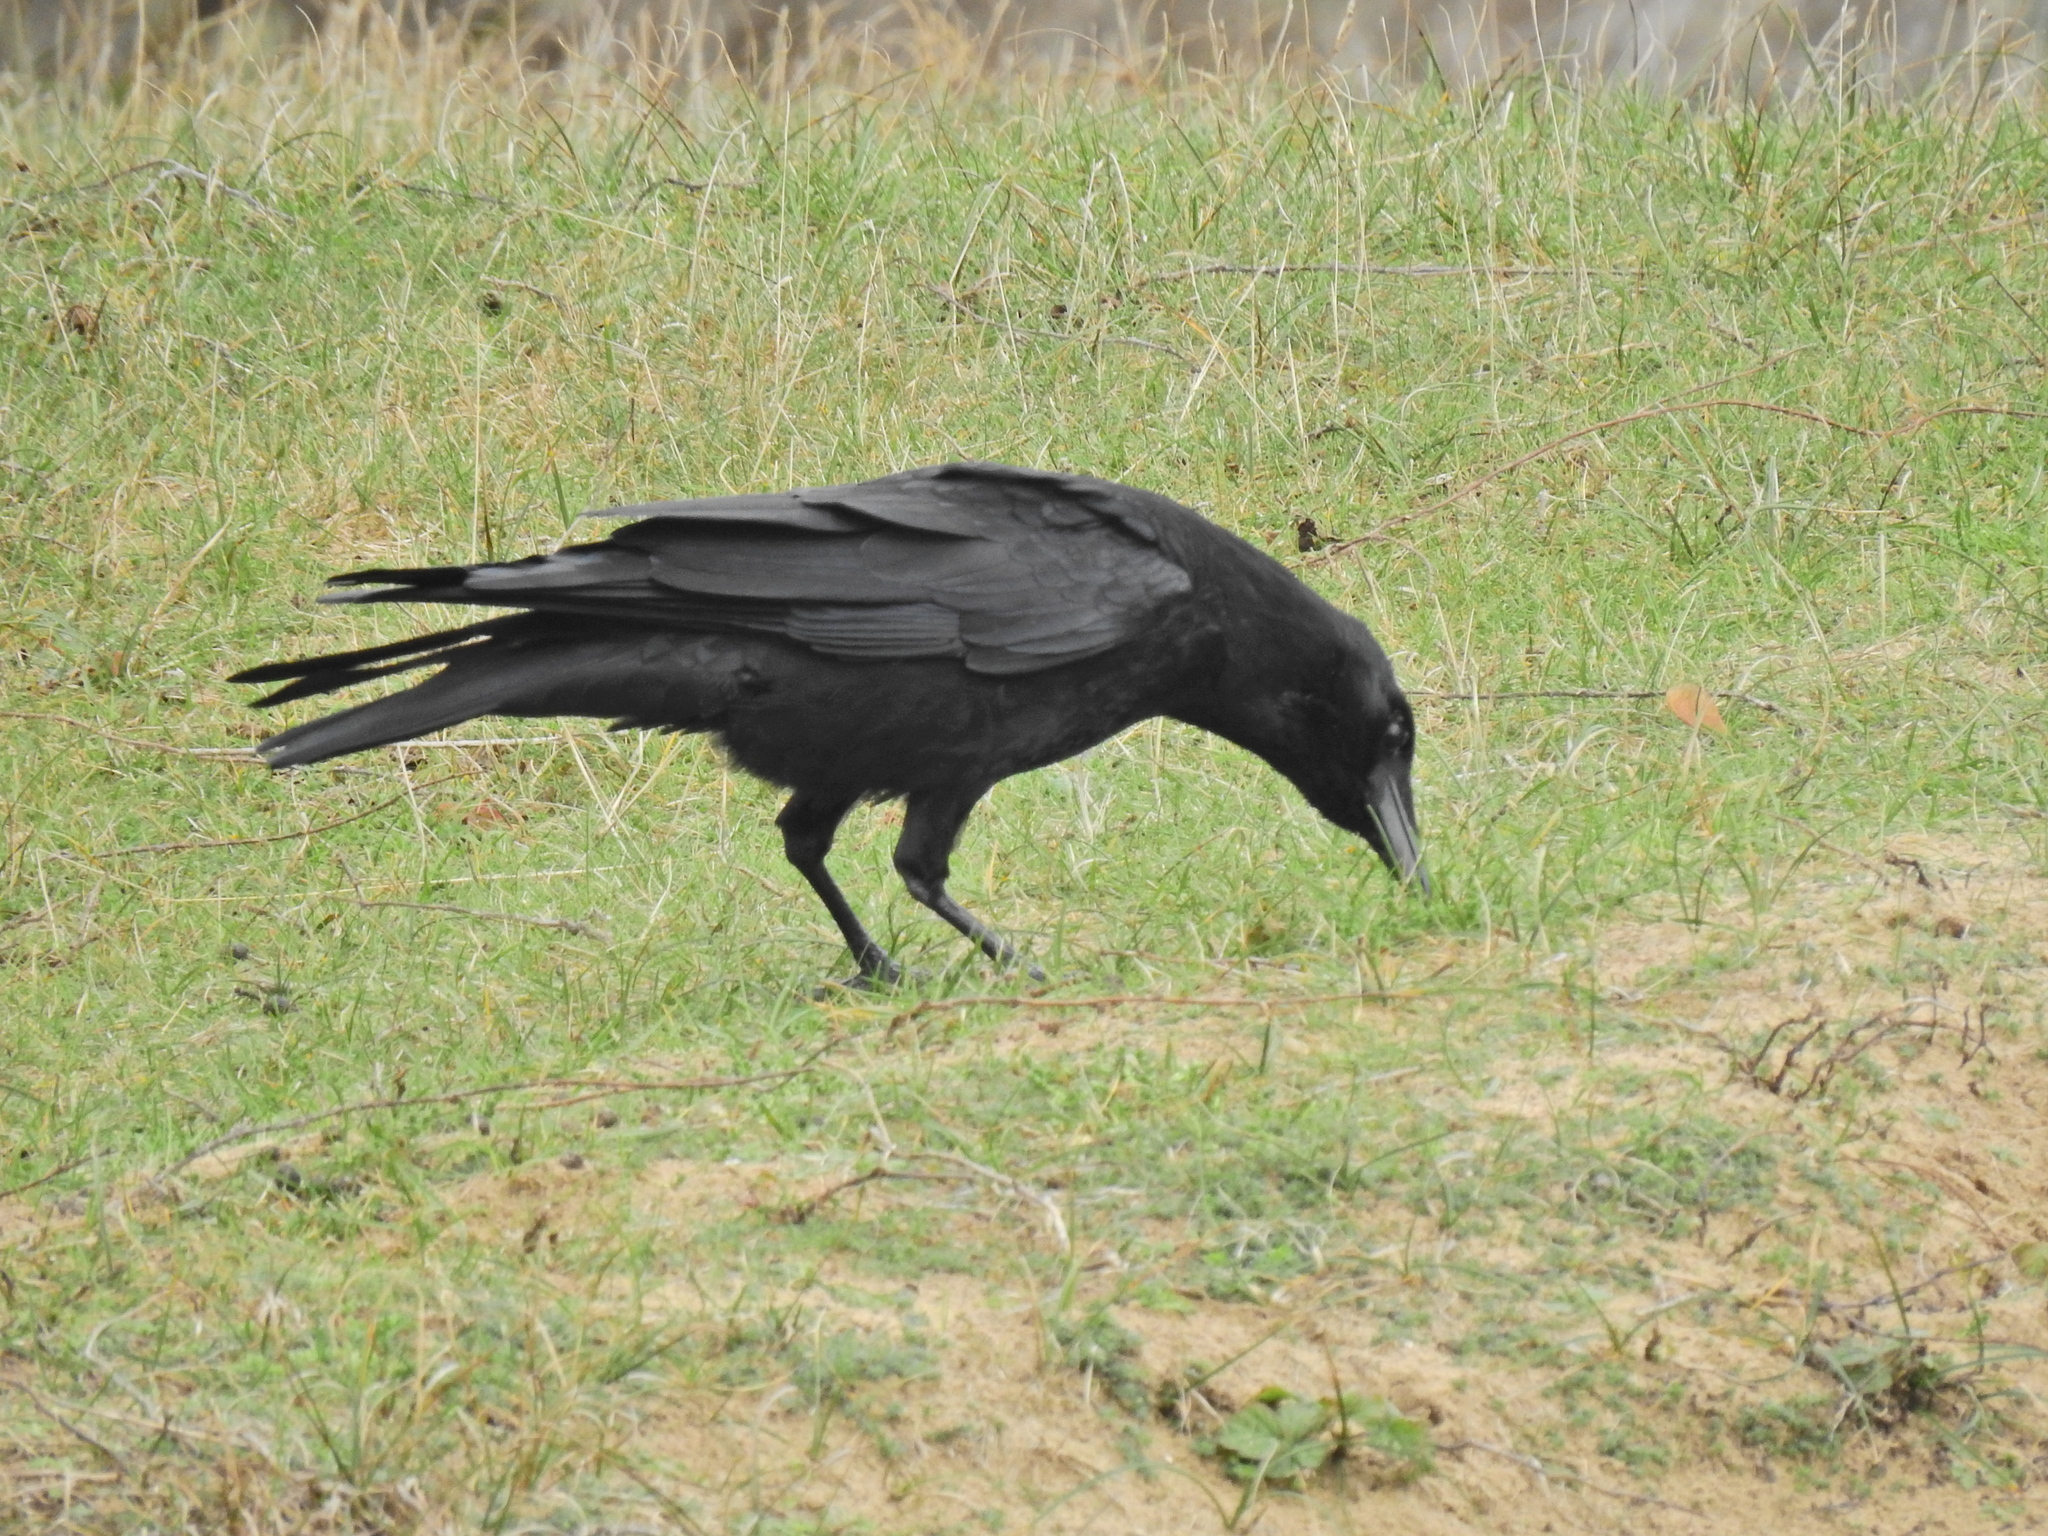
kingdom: Animalia
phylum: Chordata
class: Aves
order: Passeriformes
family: Corvidae
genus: Corvus
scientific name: Corvus corone
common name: Carrion crow
